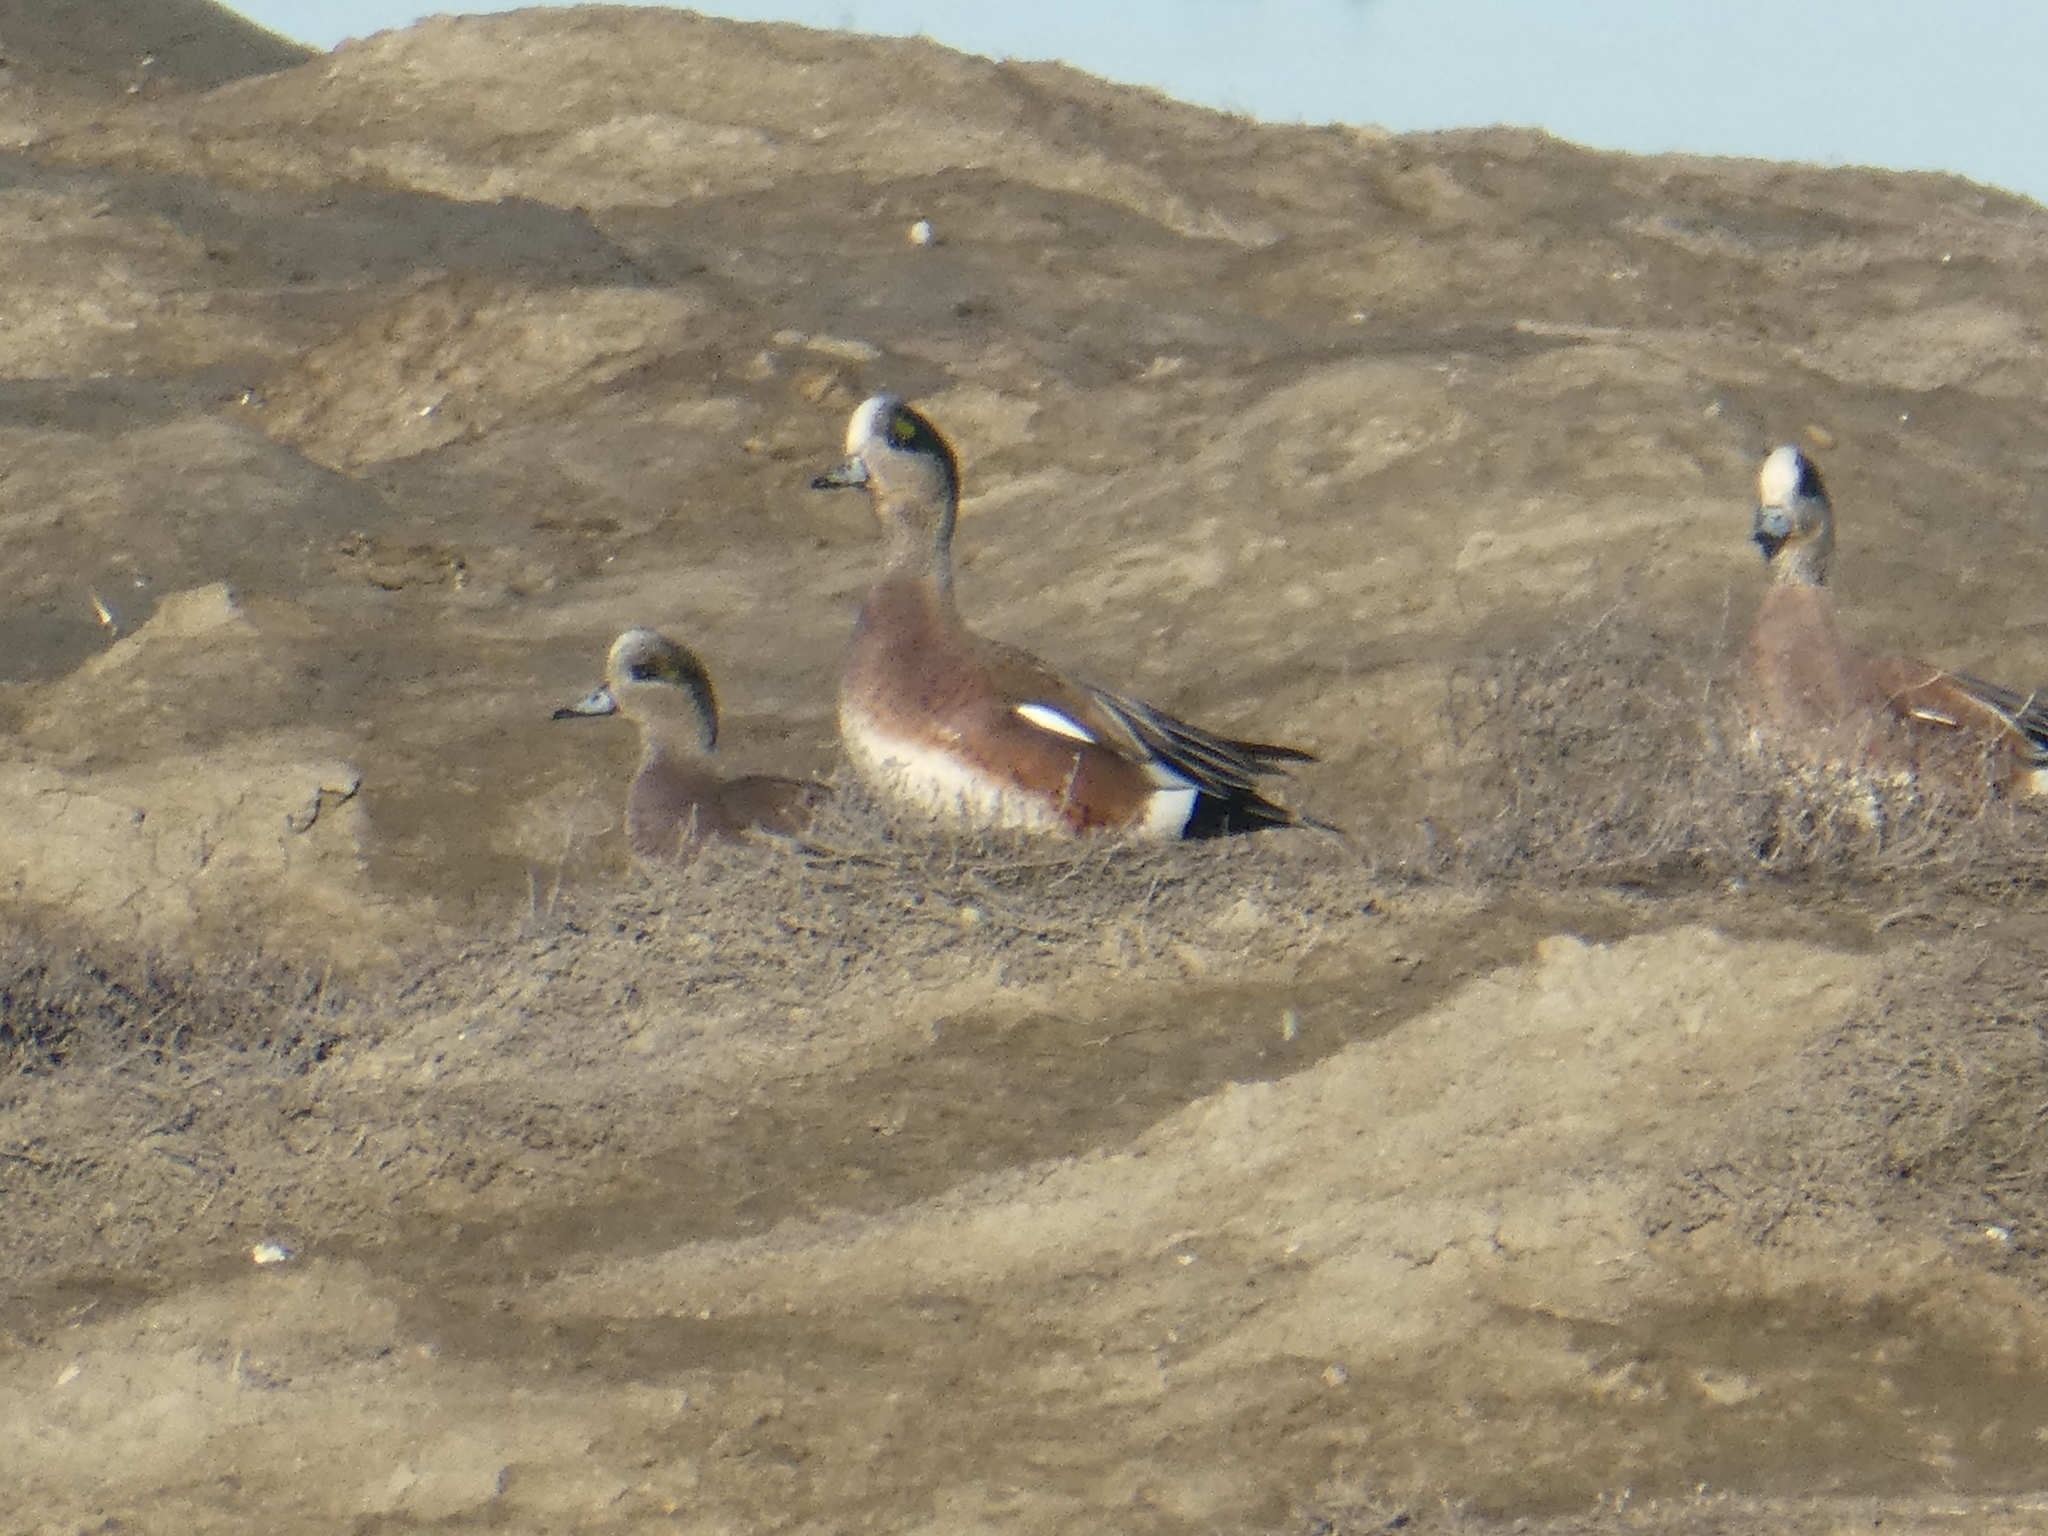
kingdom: Animalia
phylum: Chordata
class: Aves
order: Anseriformes
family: Anatidae
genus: Mareca
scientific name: Mareca americana
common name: American wigeon
